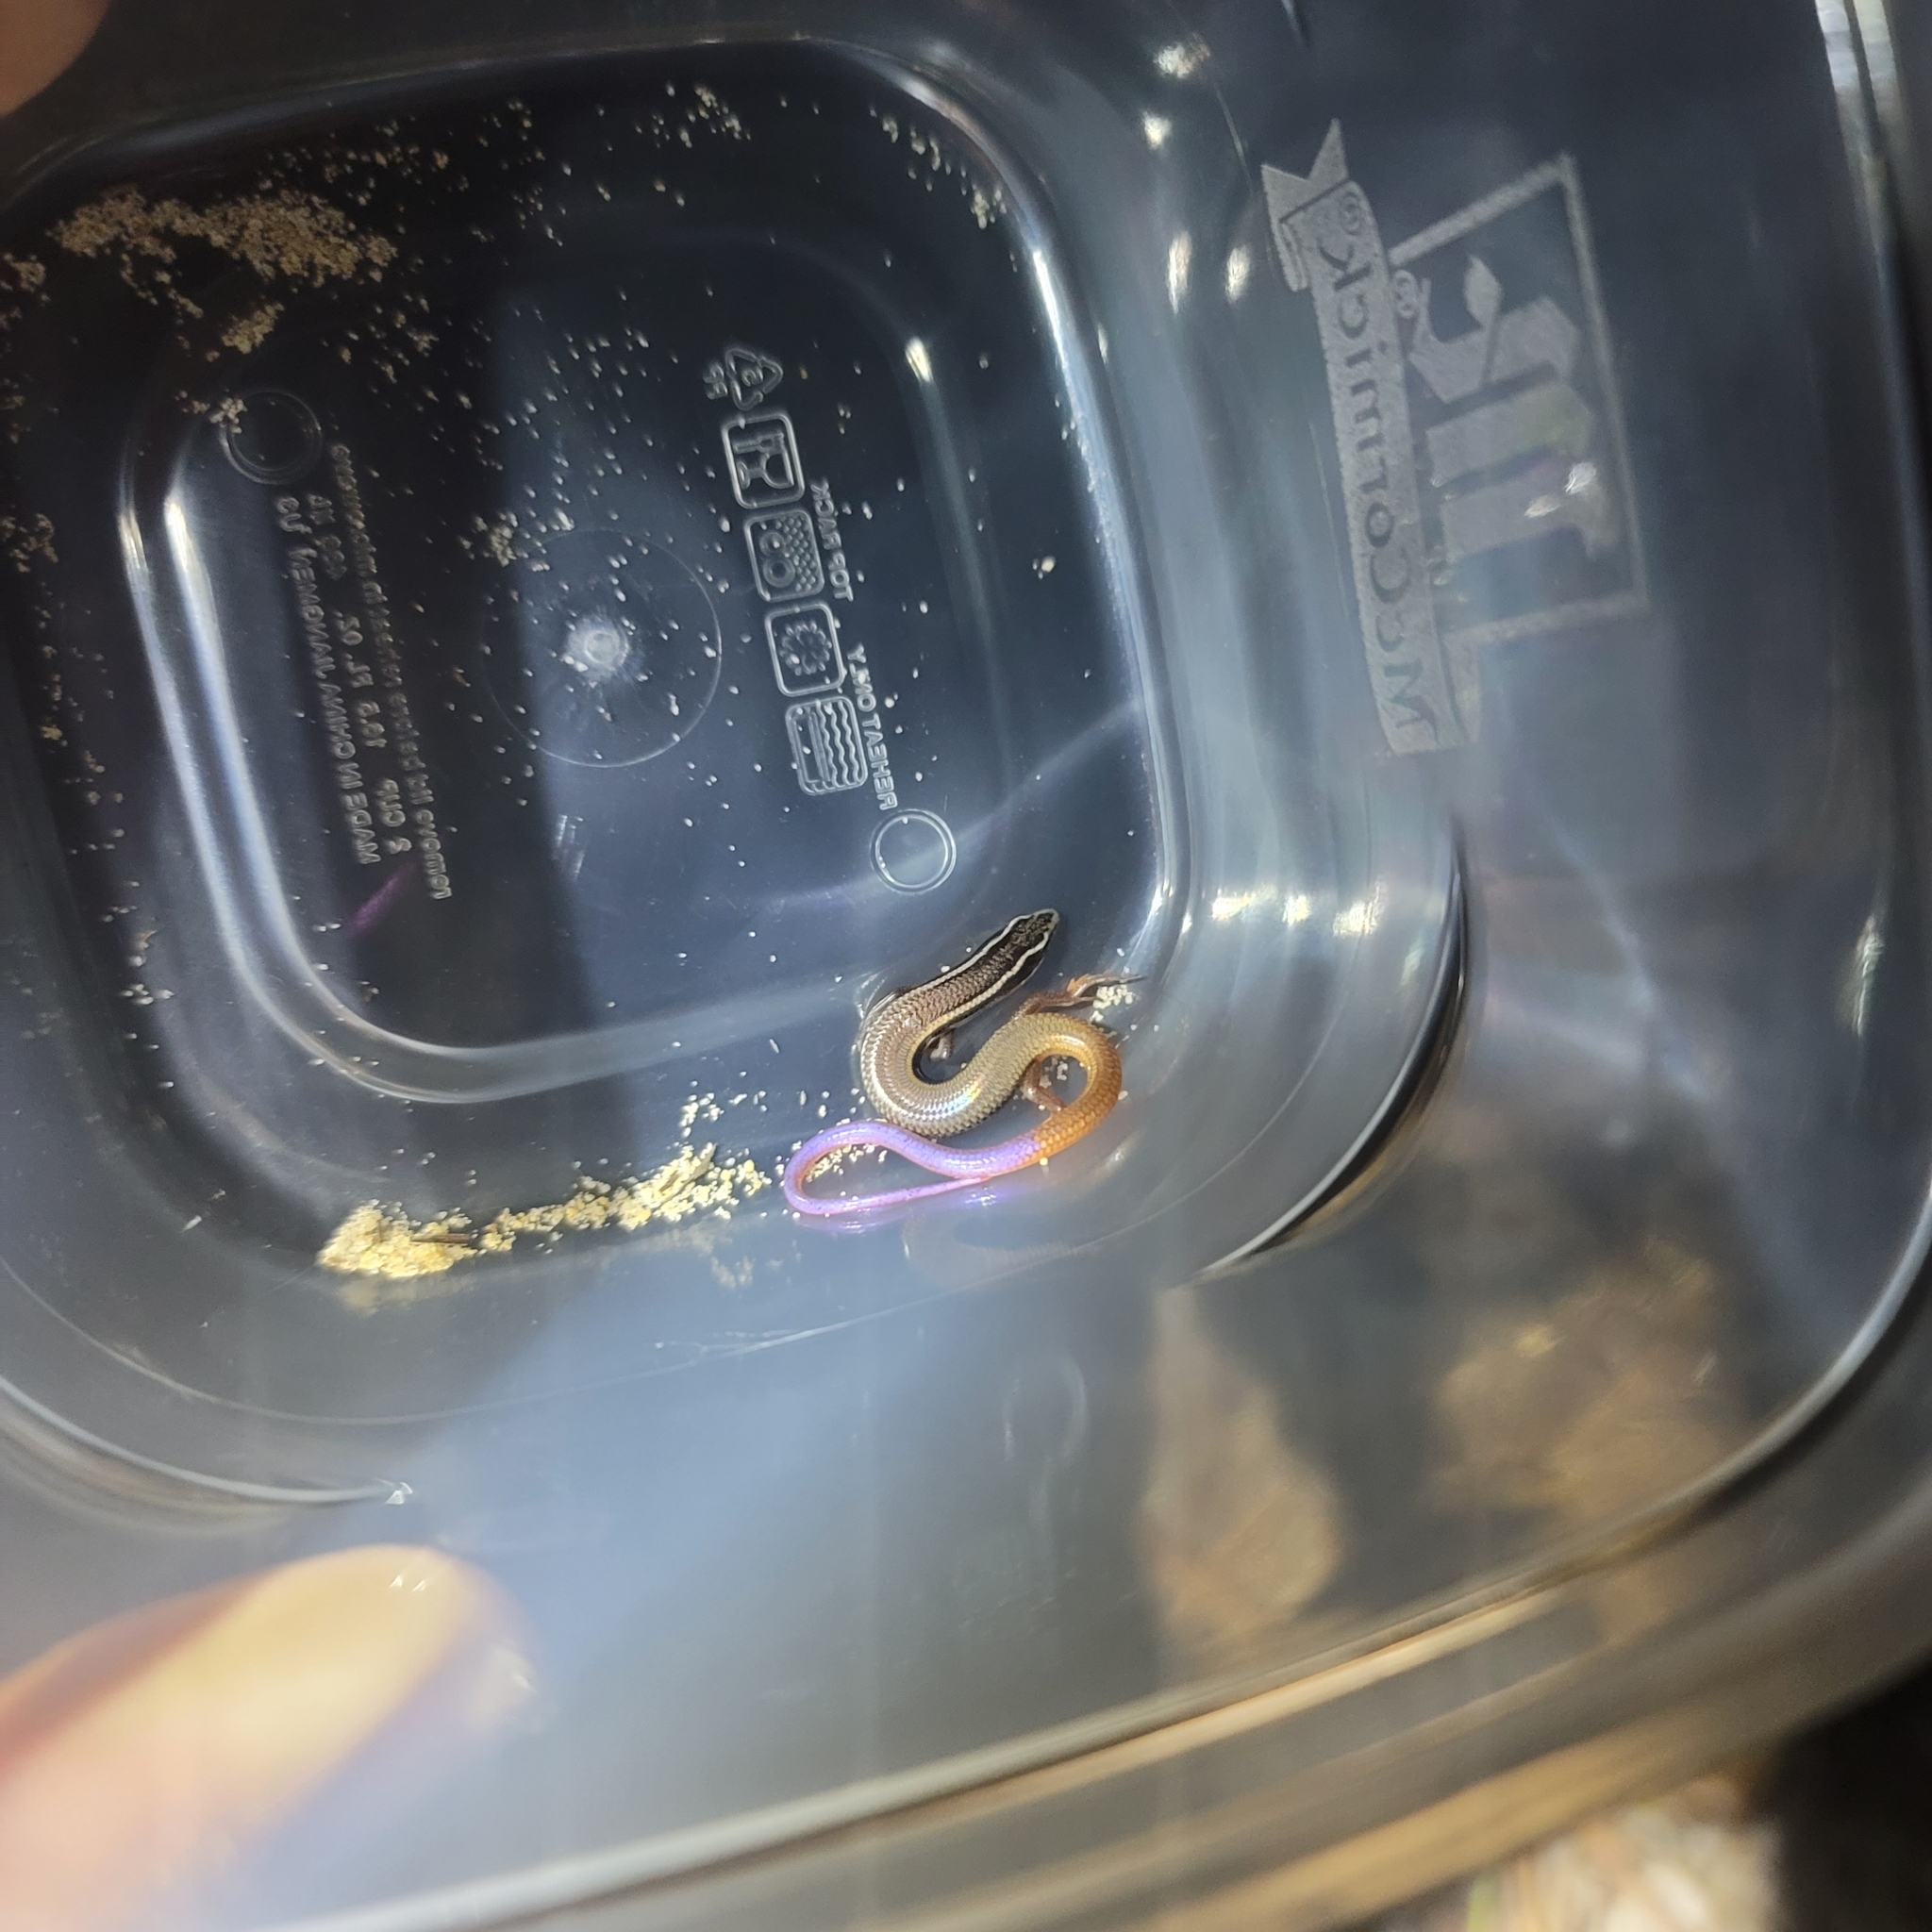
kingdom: Animalia
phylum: Chordata
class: Squamata
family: Scincidae
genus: Plestiodon
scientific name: Plestiodon egregius
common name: Mole skink
